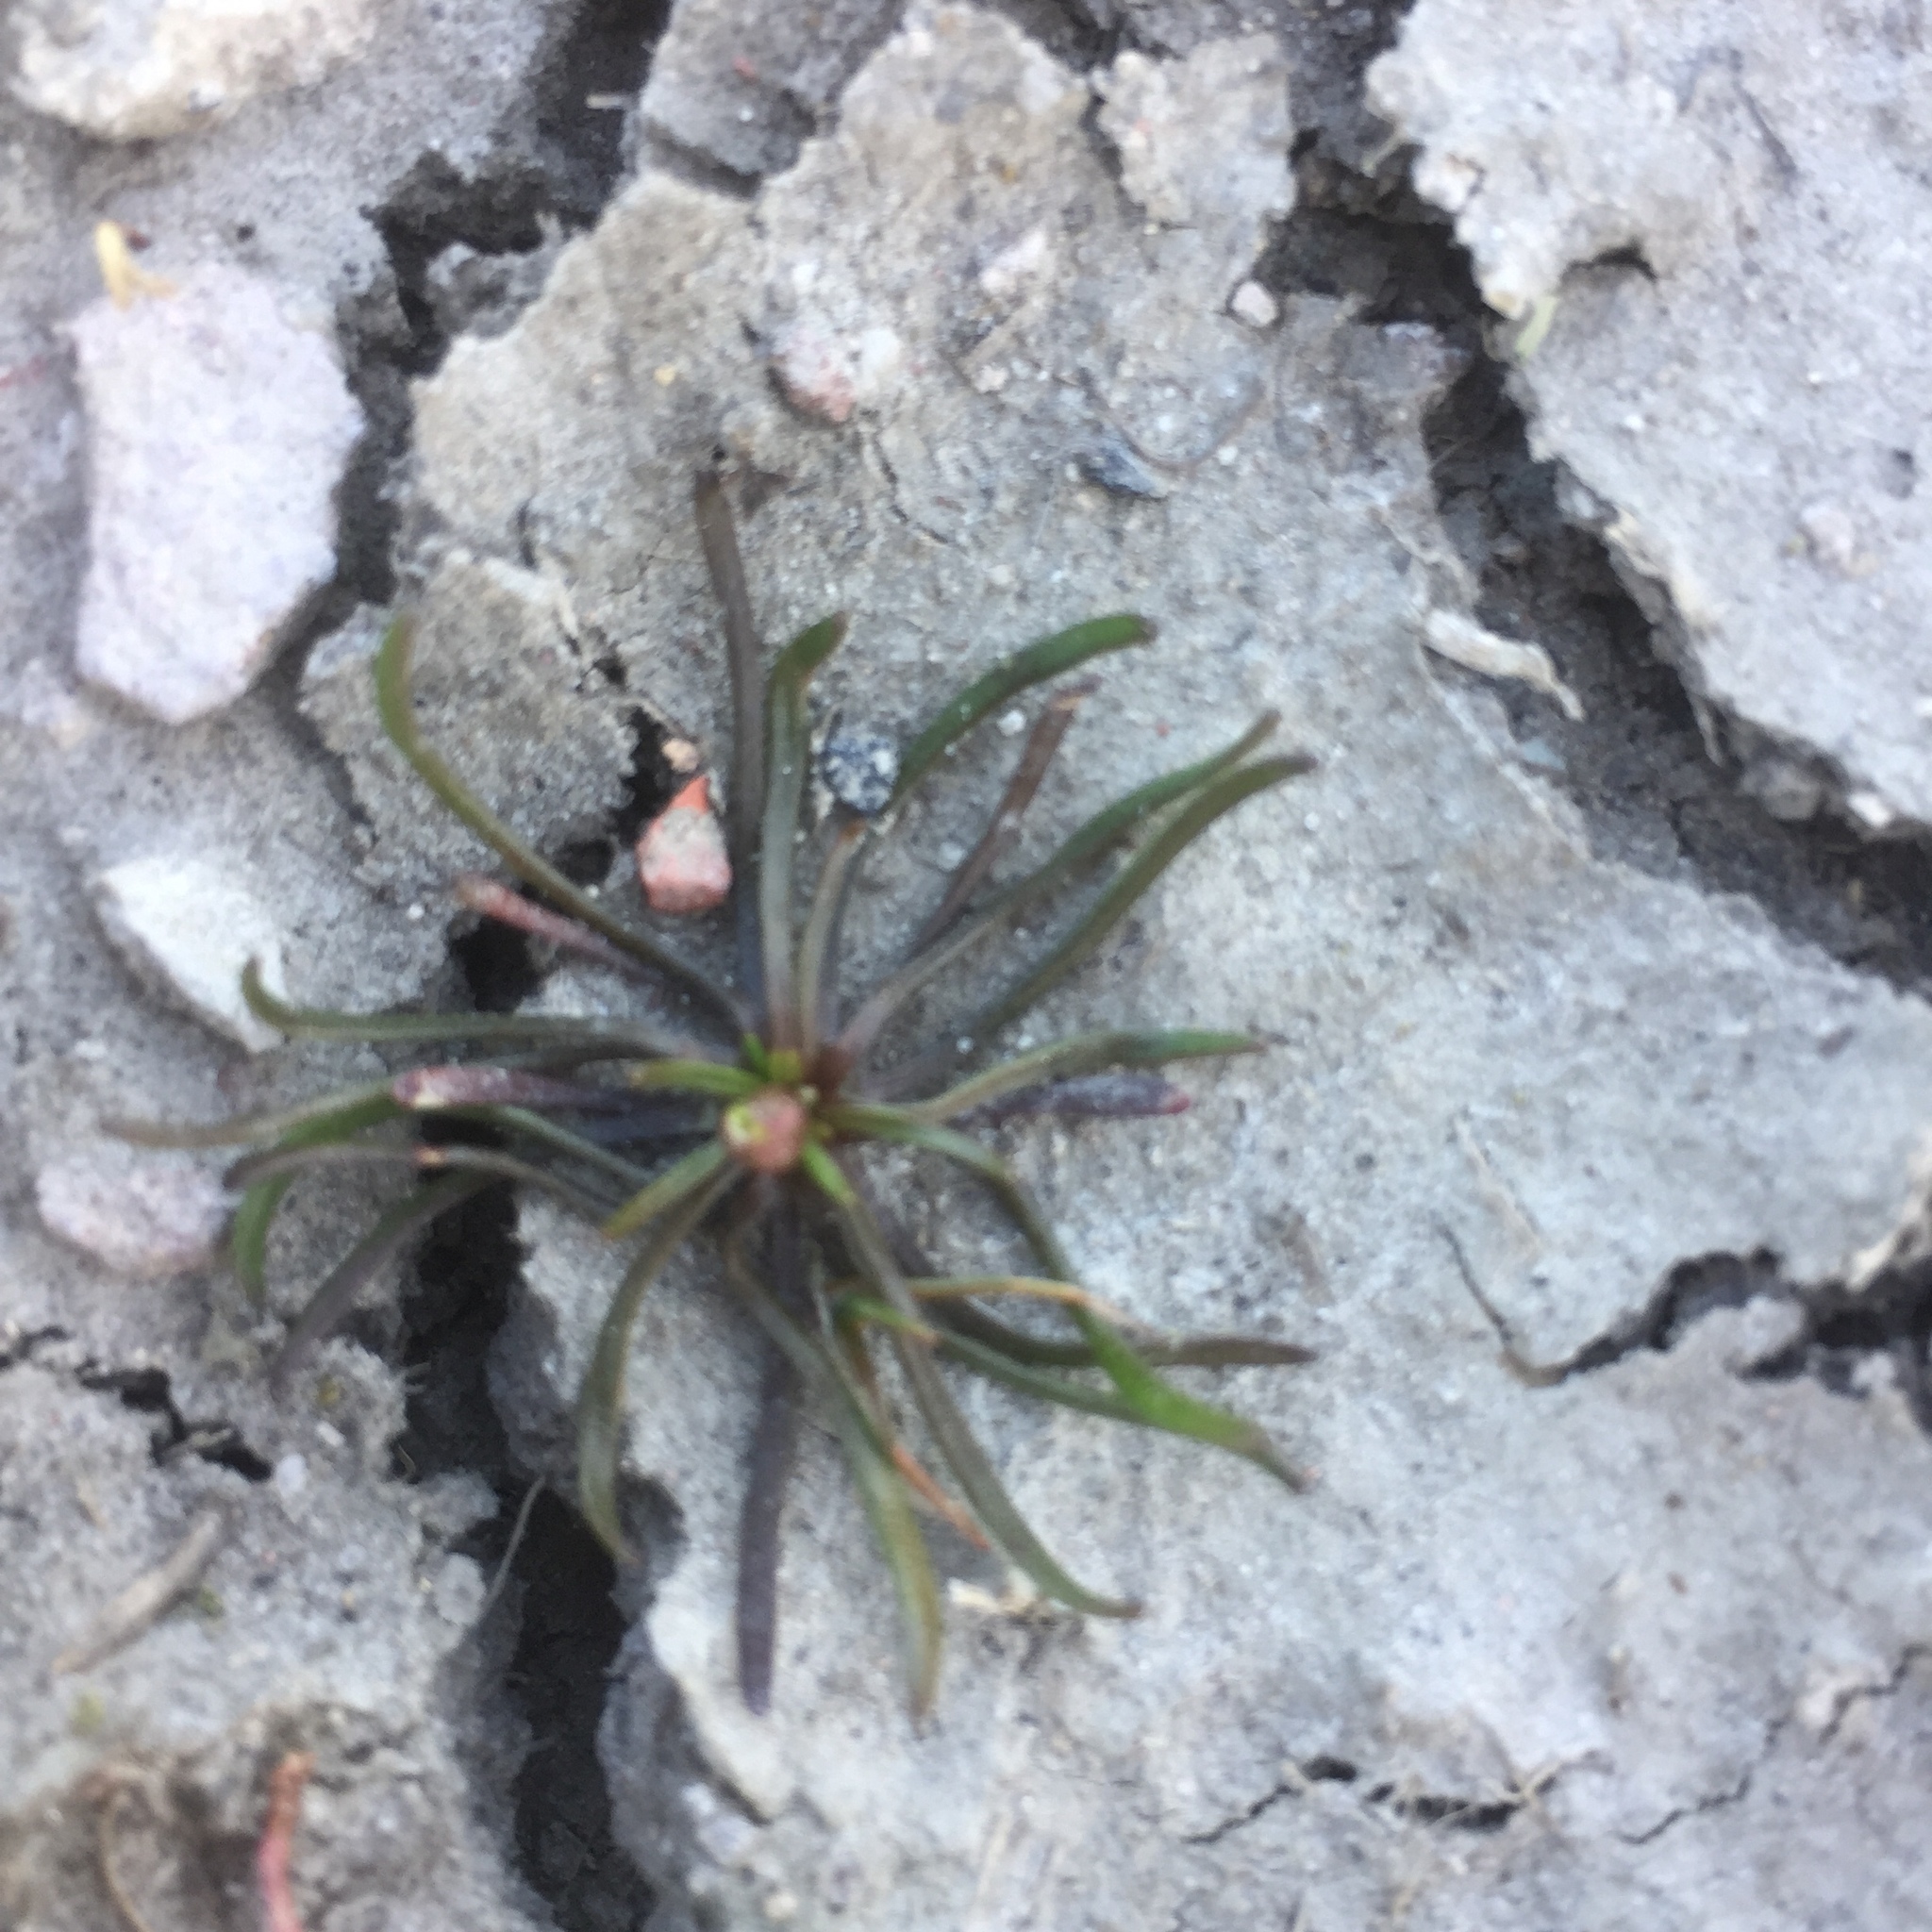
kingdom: Plantae
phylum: Tracheophyta
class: Magnoliopsida
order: Ranunculales
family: Ranunculaceae
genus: Myosurus
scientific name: Myosurus minimus
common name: Mousetail
